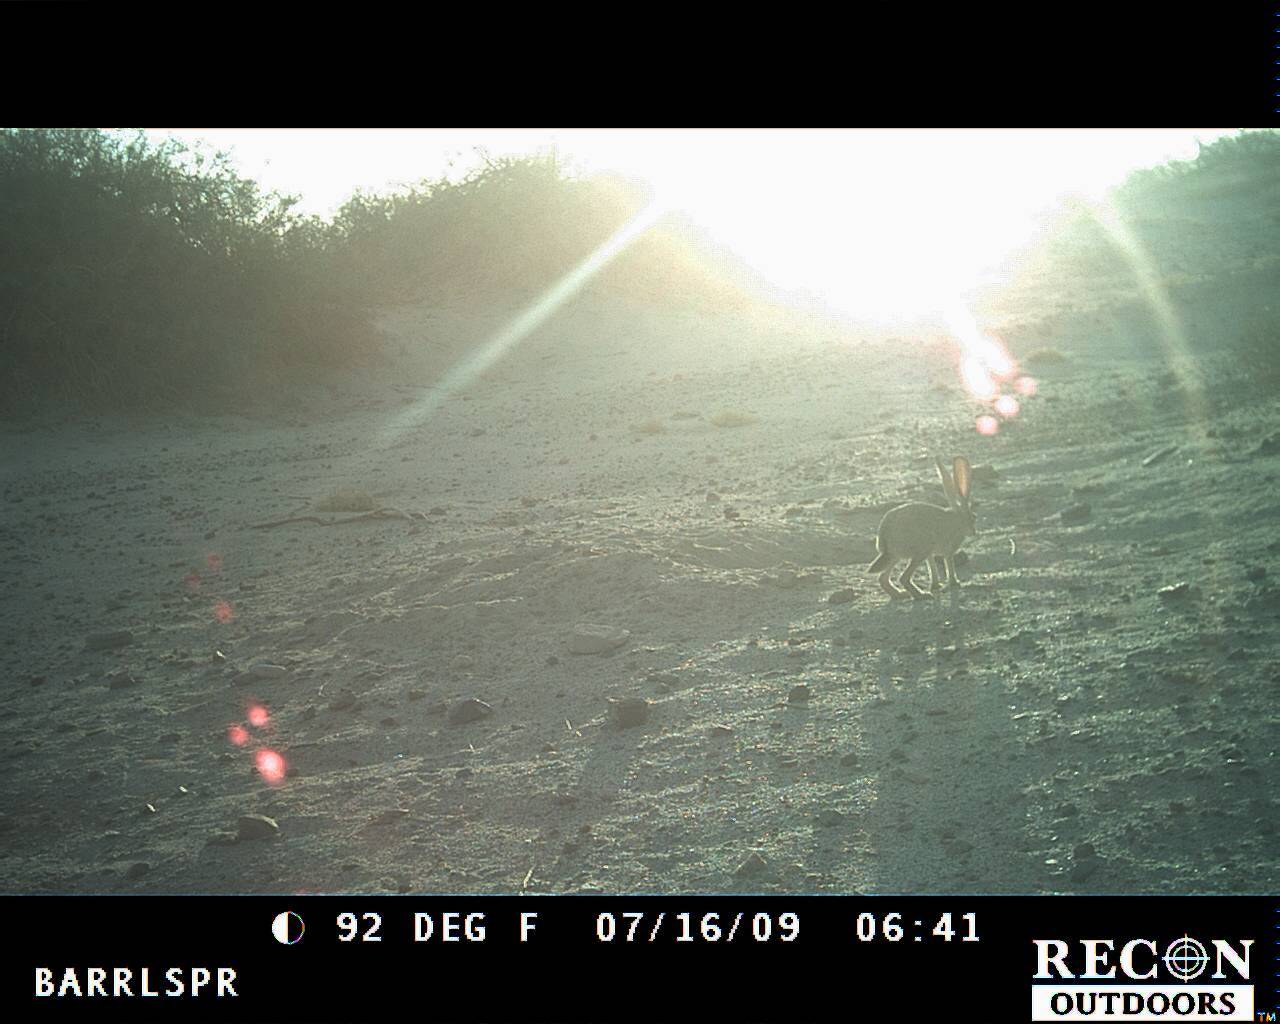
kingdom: Animalia
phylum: Chordata
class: Mammalia
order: Lagomorpha
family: Leporidae
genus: Lepus
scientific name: Lepus californicus
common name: Black-tailed jackrabbit
